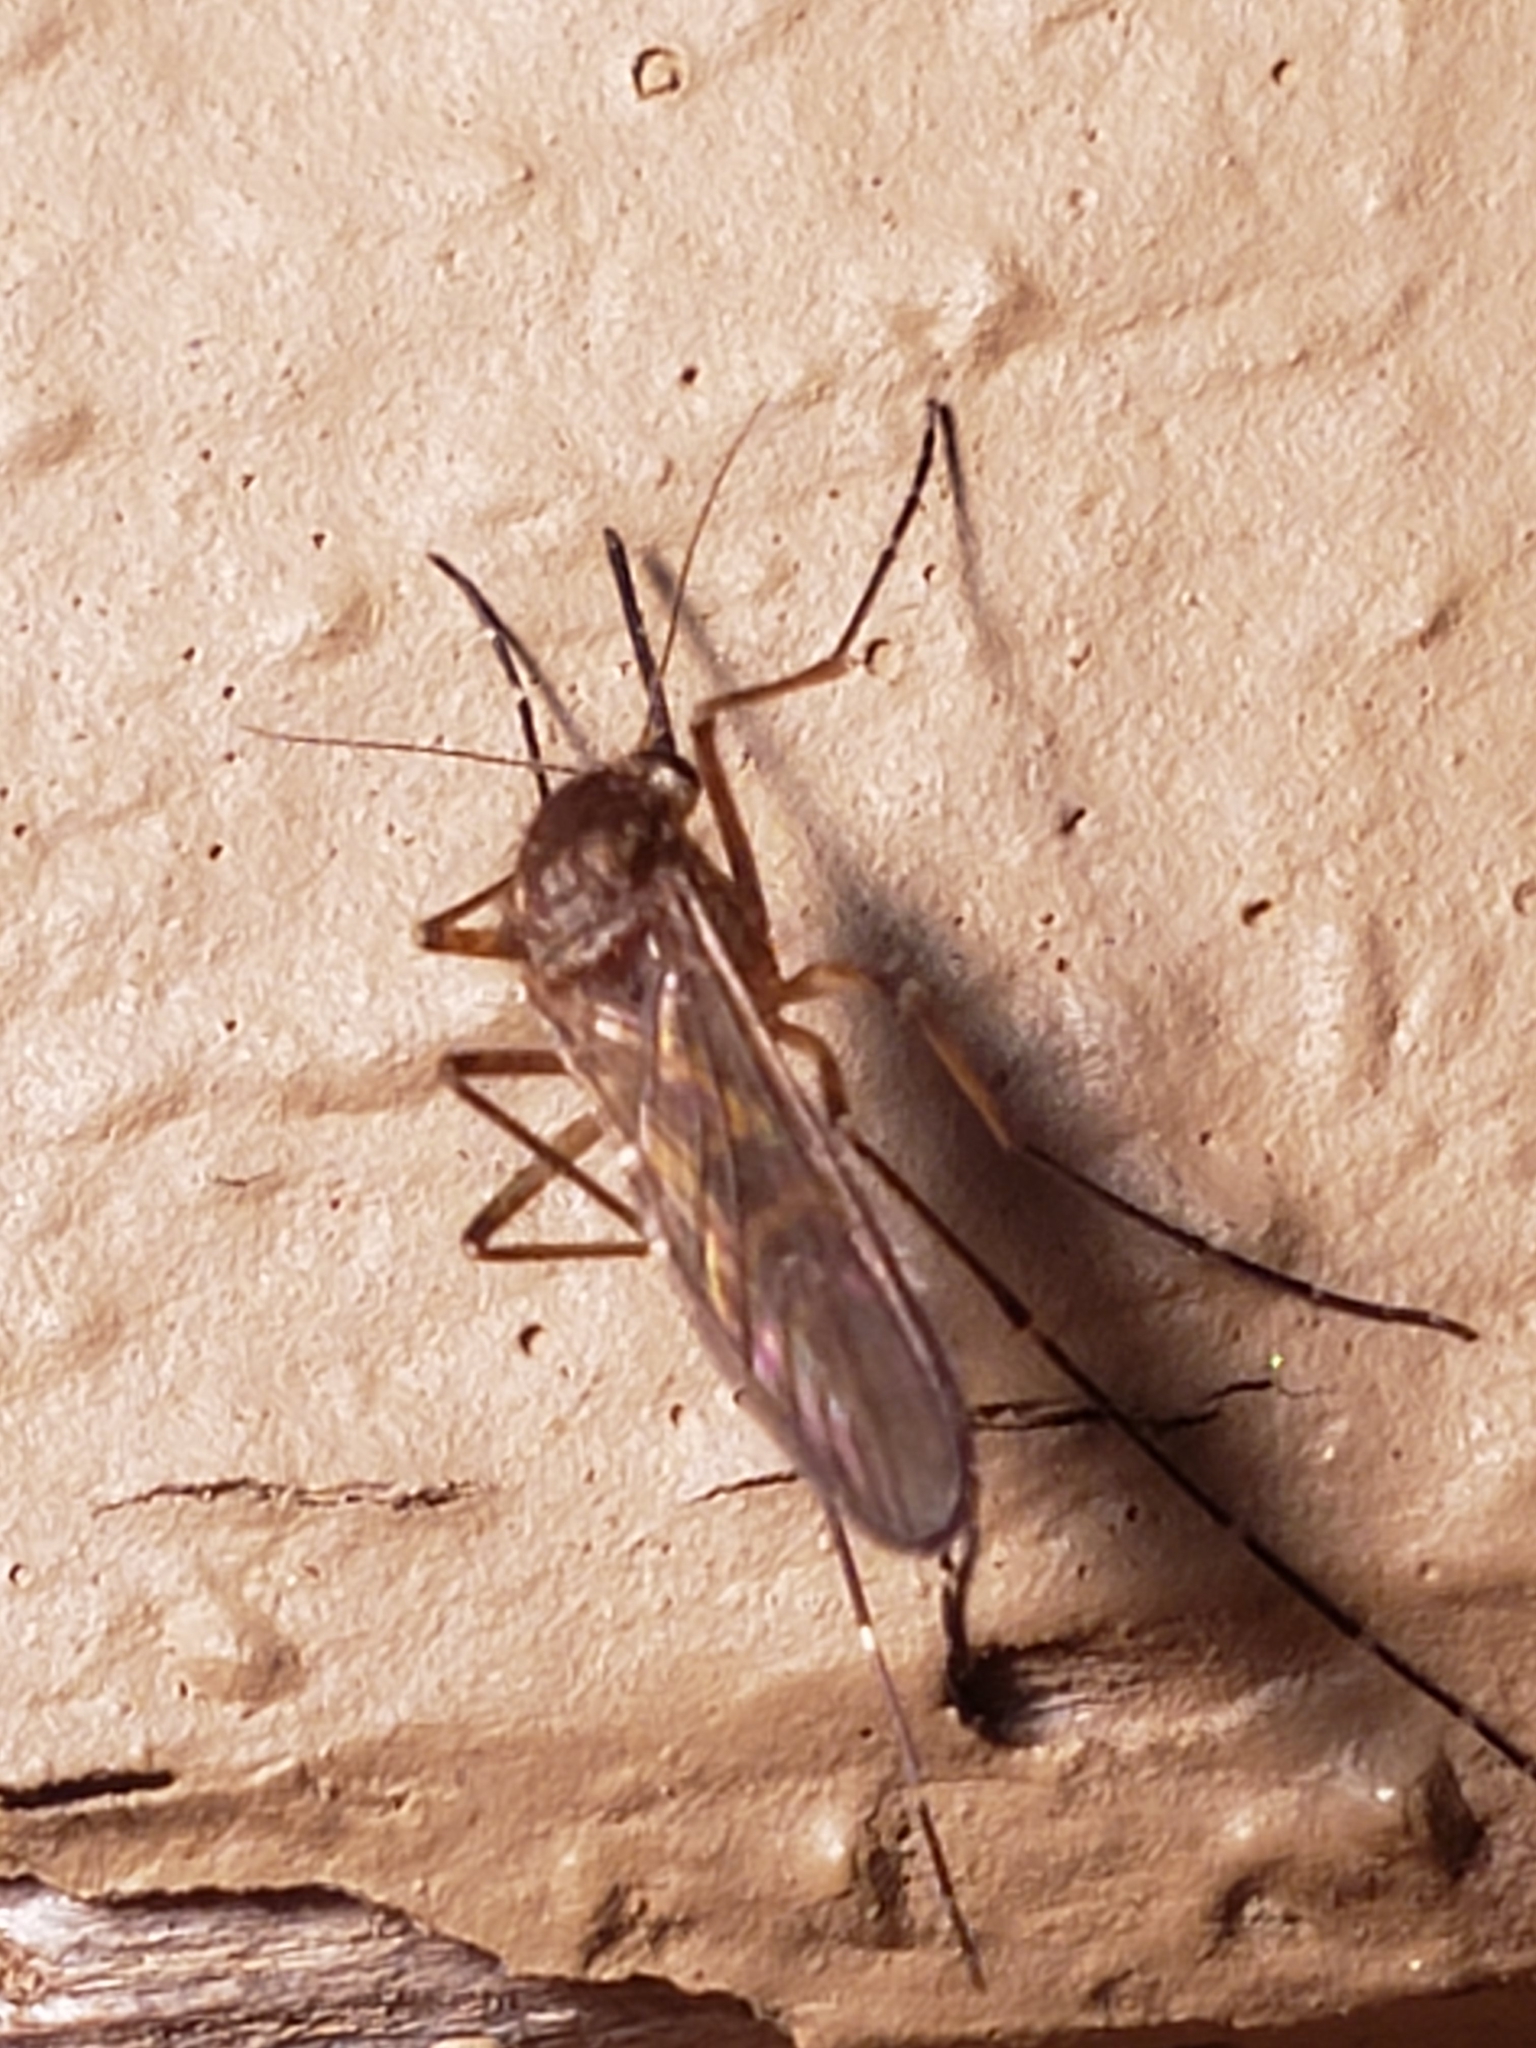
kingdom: Animalia
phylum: Arthropoda
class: Insecta
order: Diptera
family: Culicidae
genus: Aedes
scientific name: Aedes vexans
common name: Inland floodwater mosquito
